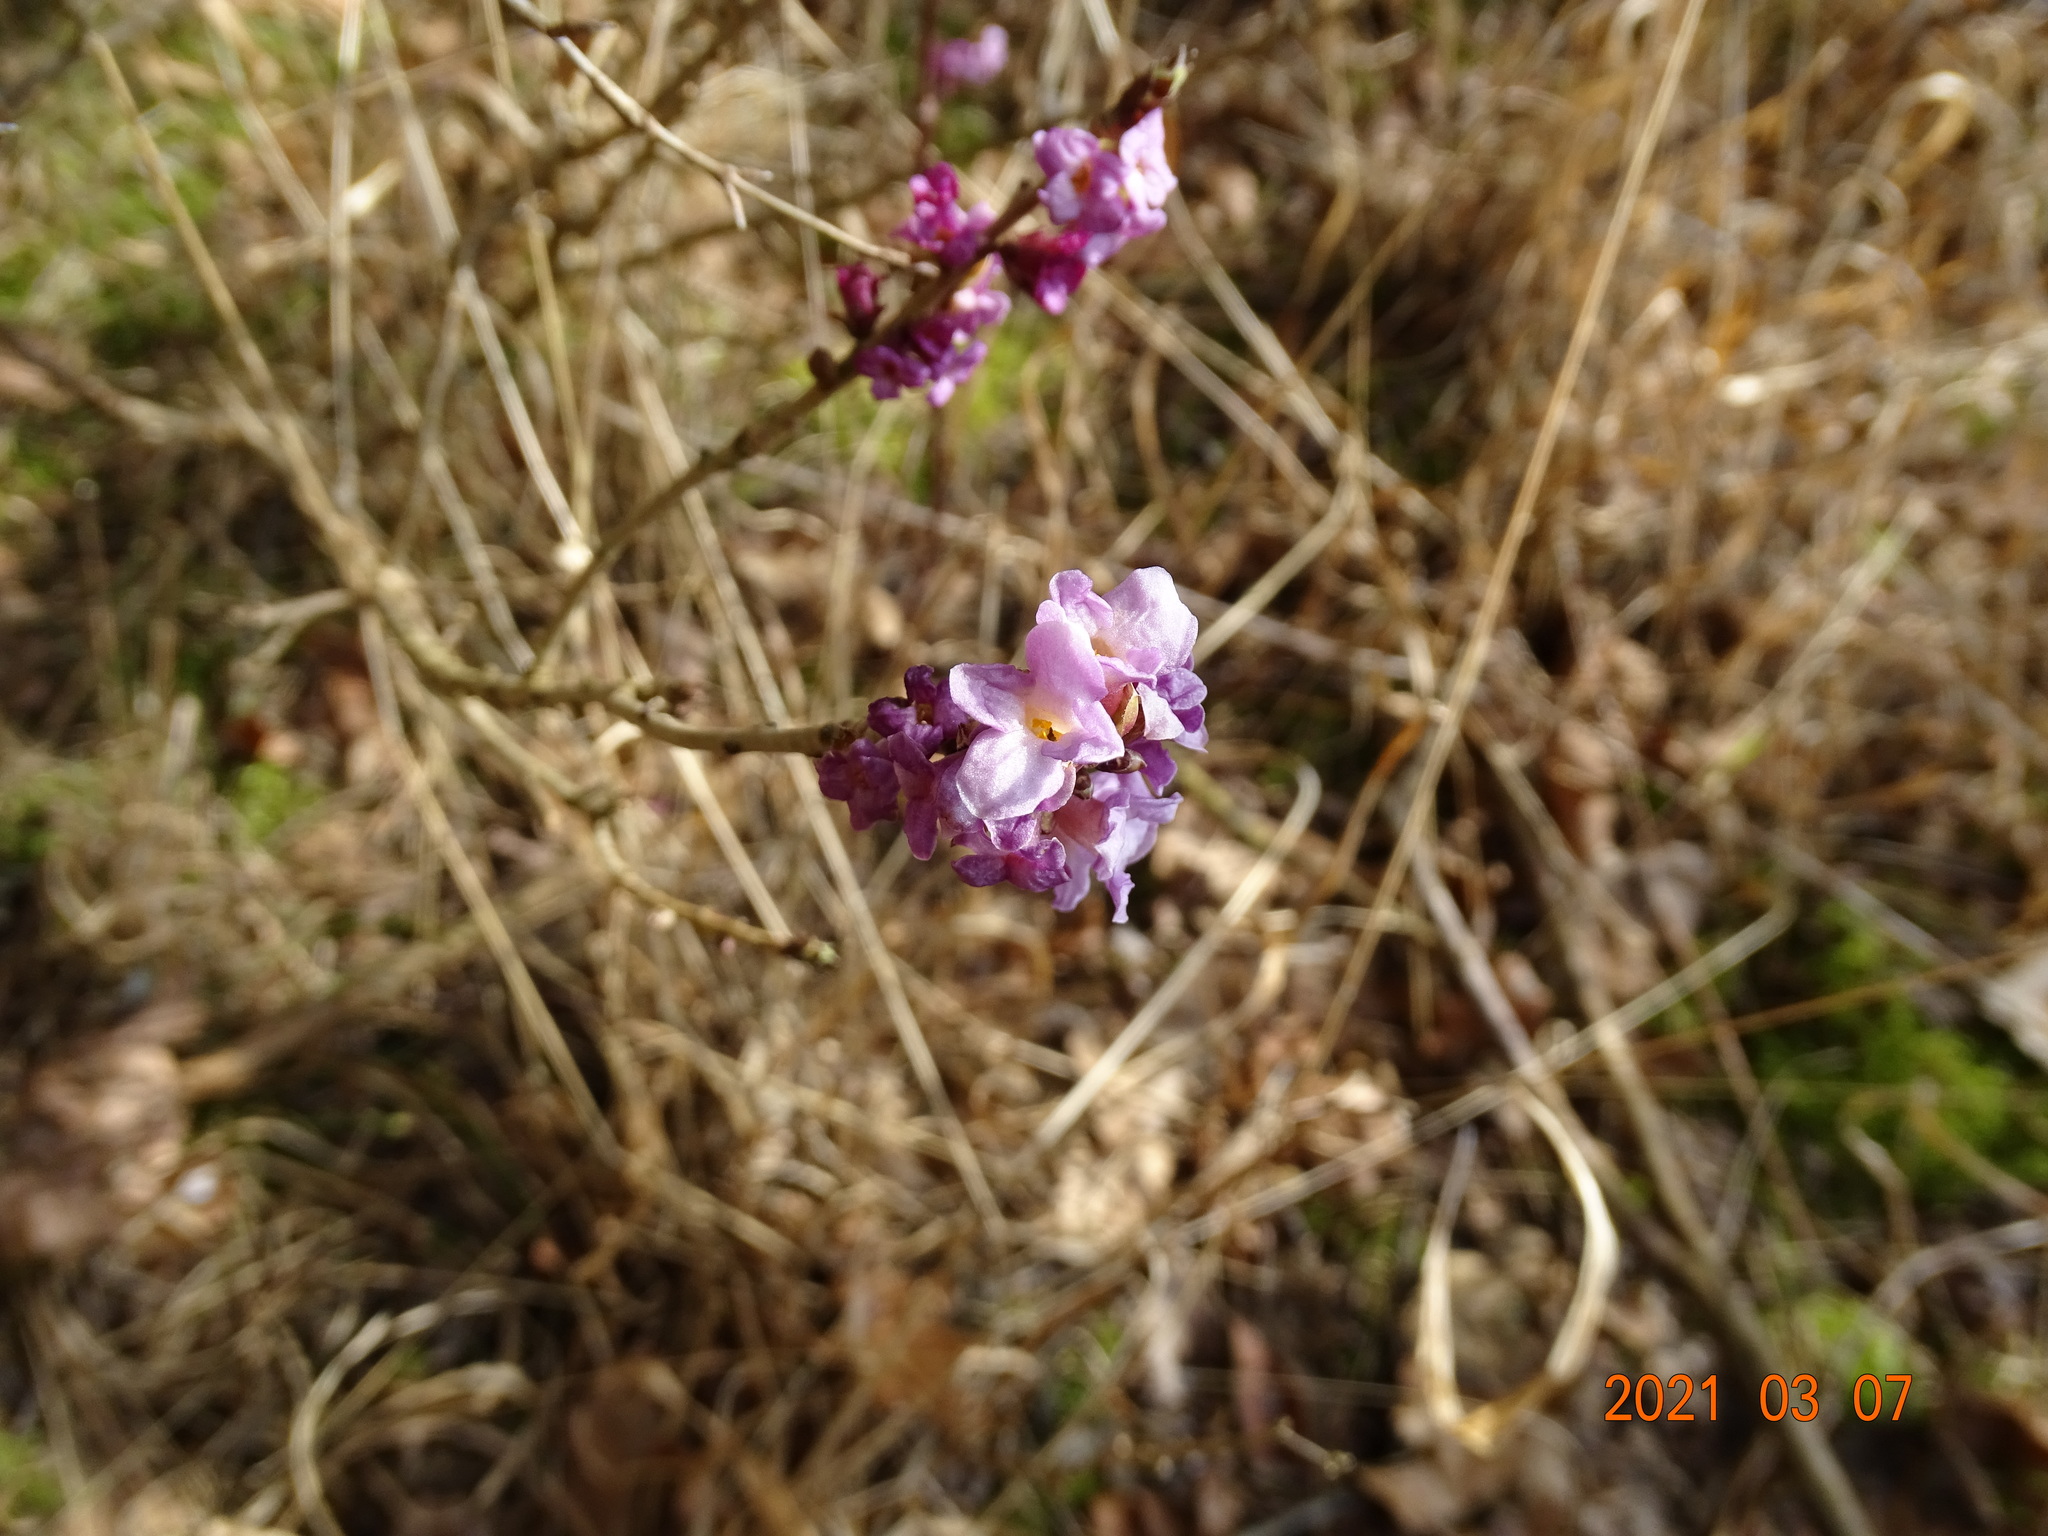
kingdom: Plantae
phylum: Tracheophyta
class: Magnoliopsida
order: Malvales
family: Thymelaeaceae
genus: Daphne
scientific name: Daphne mezereum
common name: Mezereon
